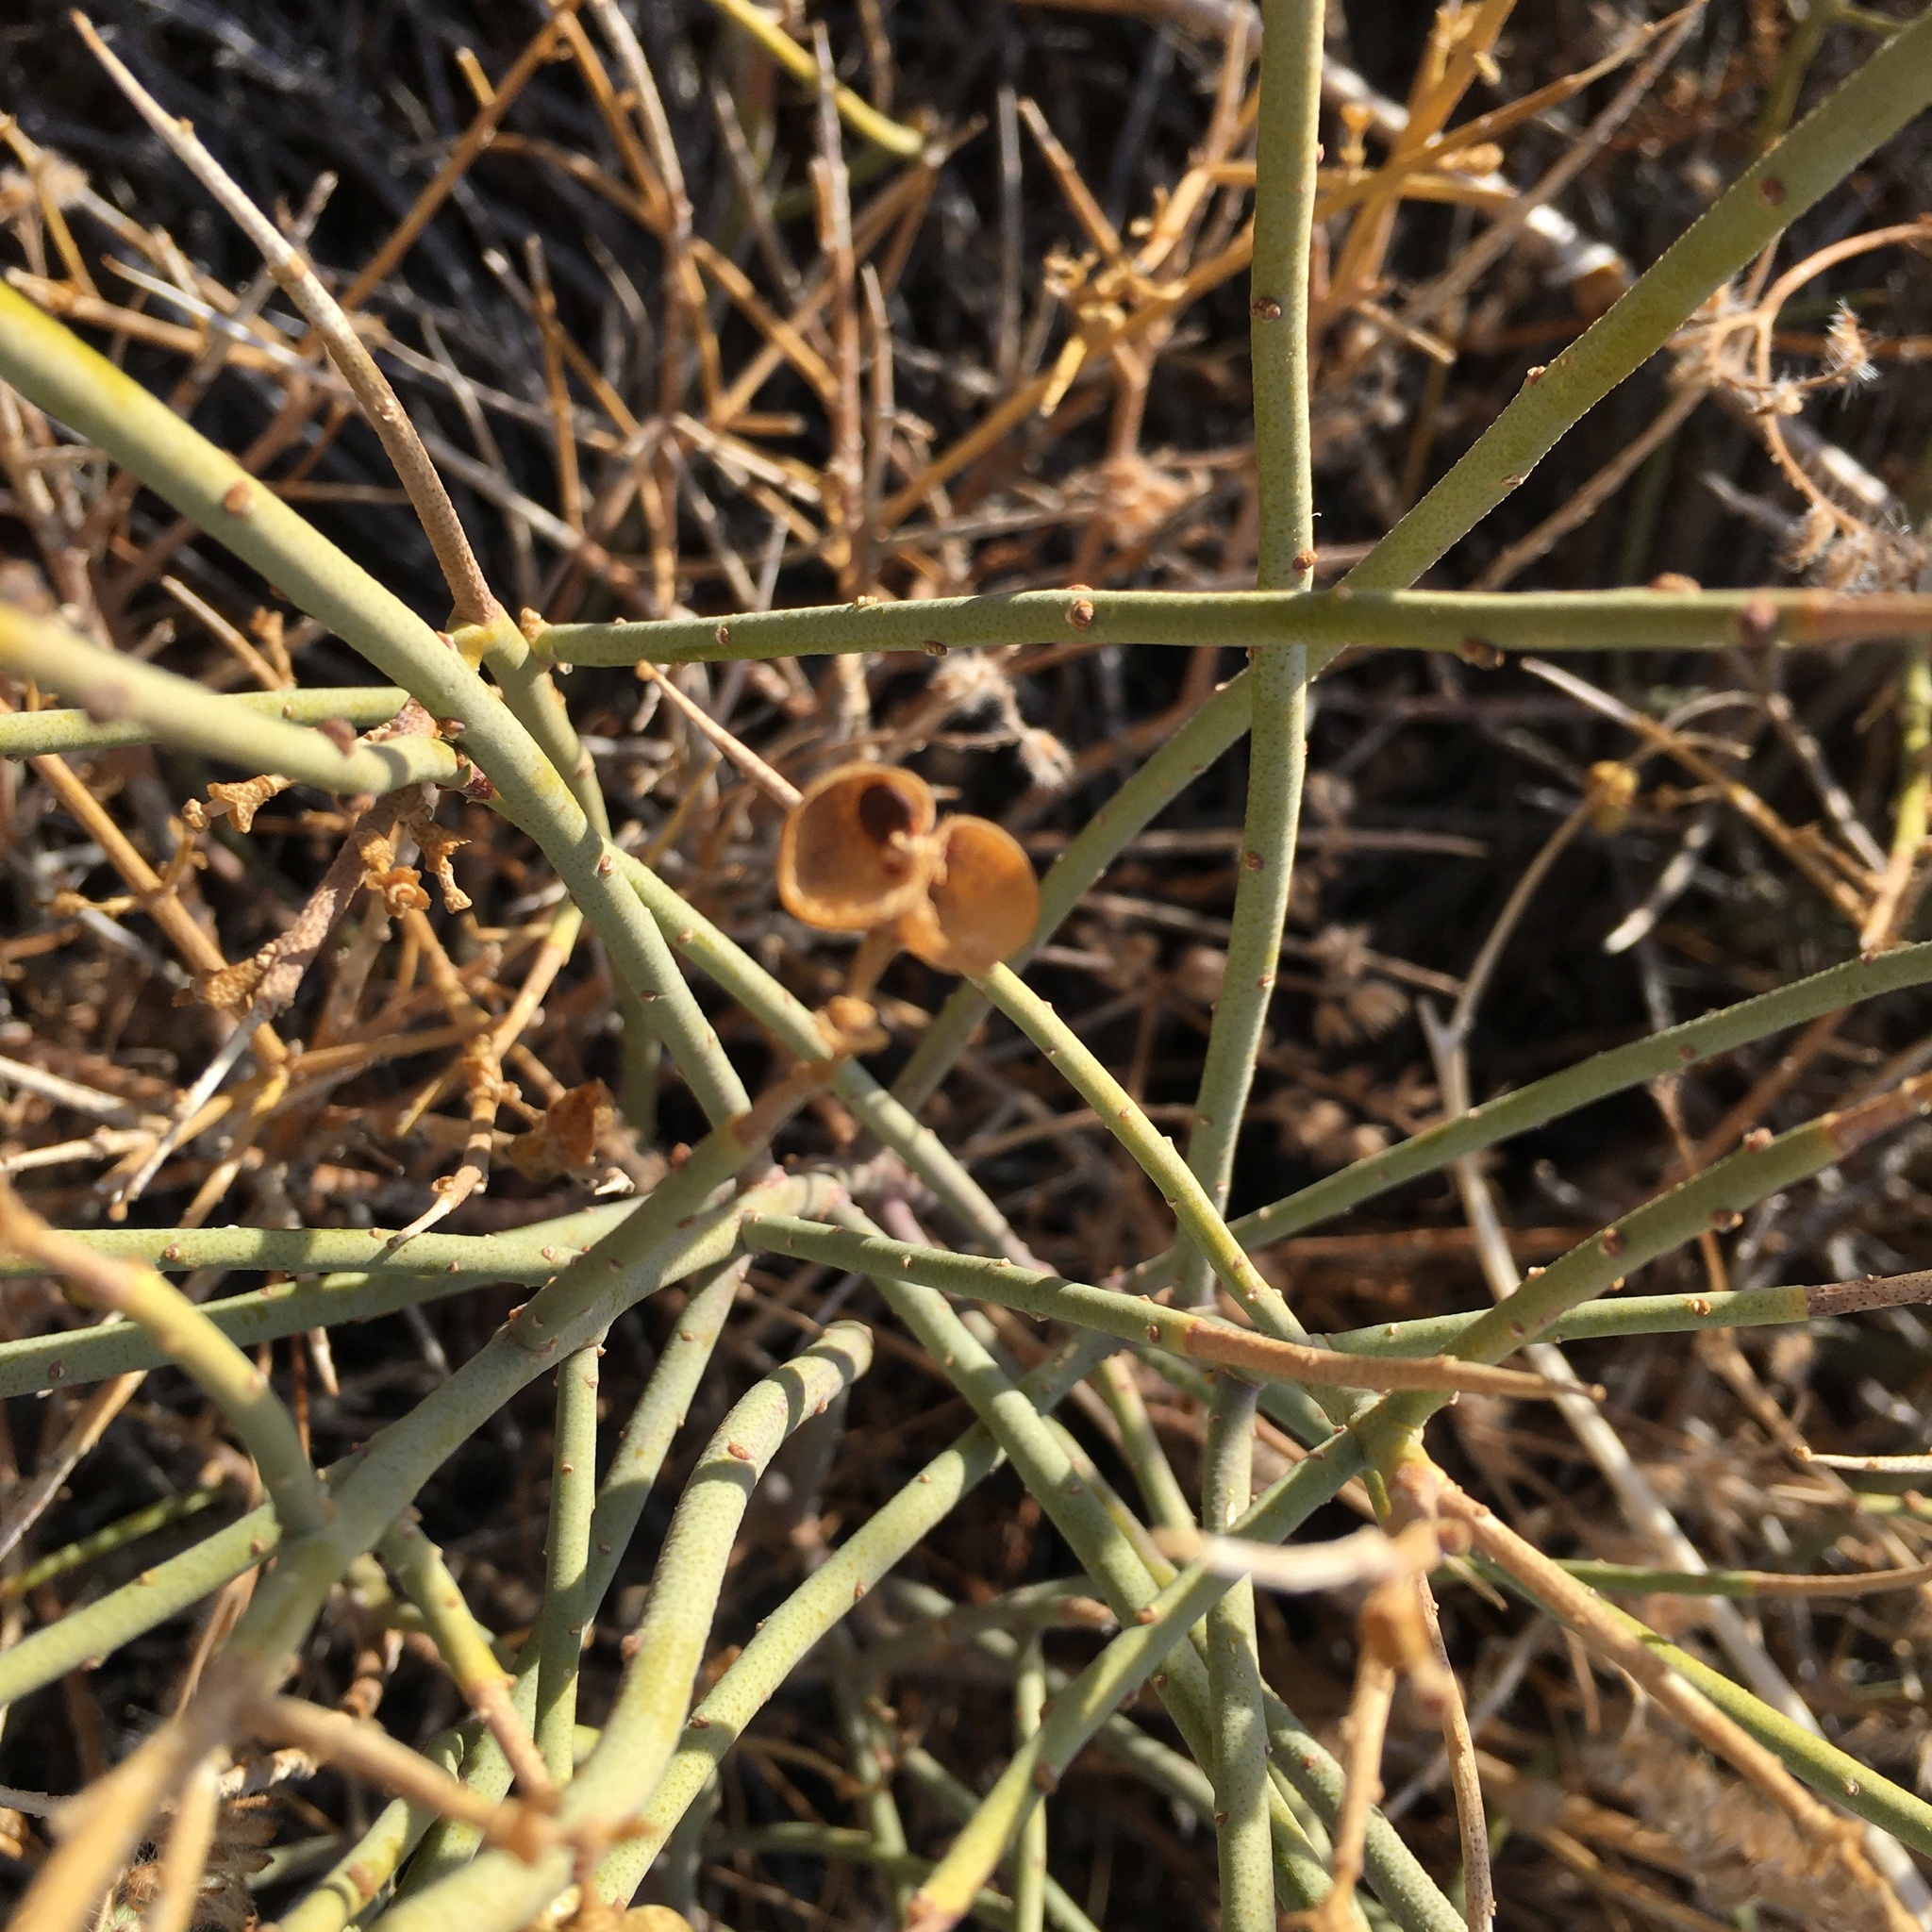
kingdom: Plantae
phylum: Tracheophyta
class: Magnoliopsida
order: Sapindales
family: Rutaceae
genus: Thamnosma
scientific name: Thamnosma montana
